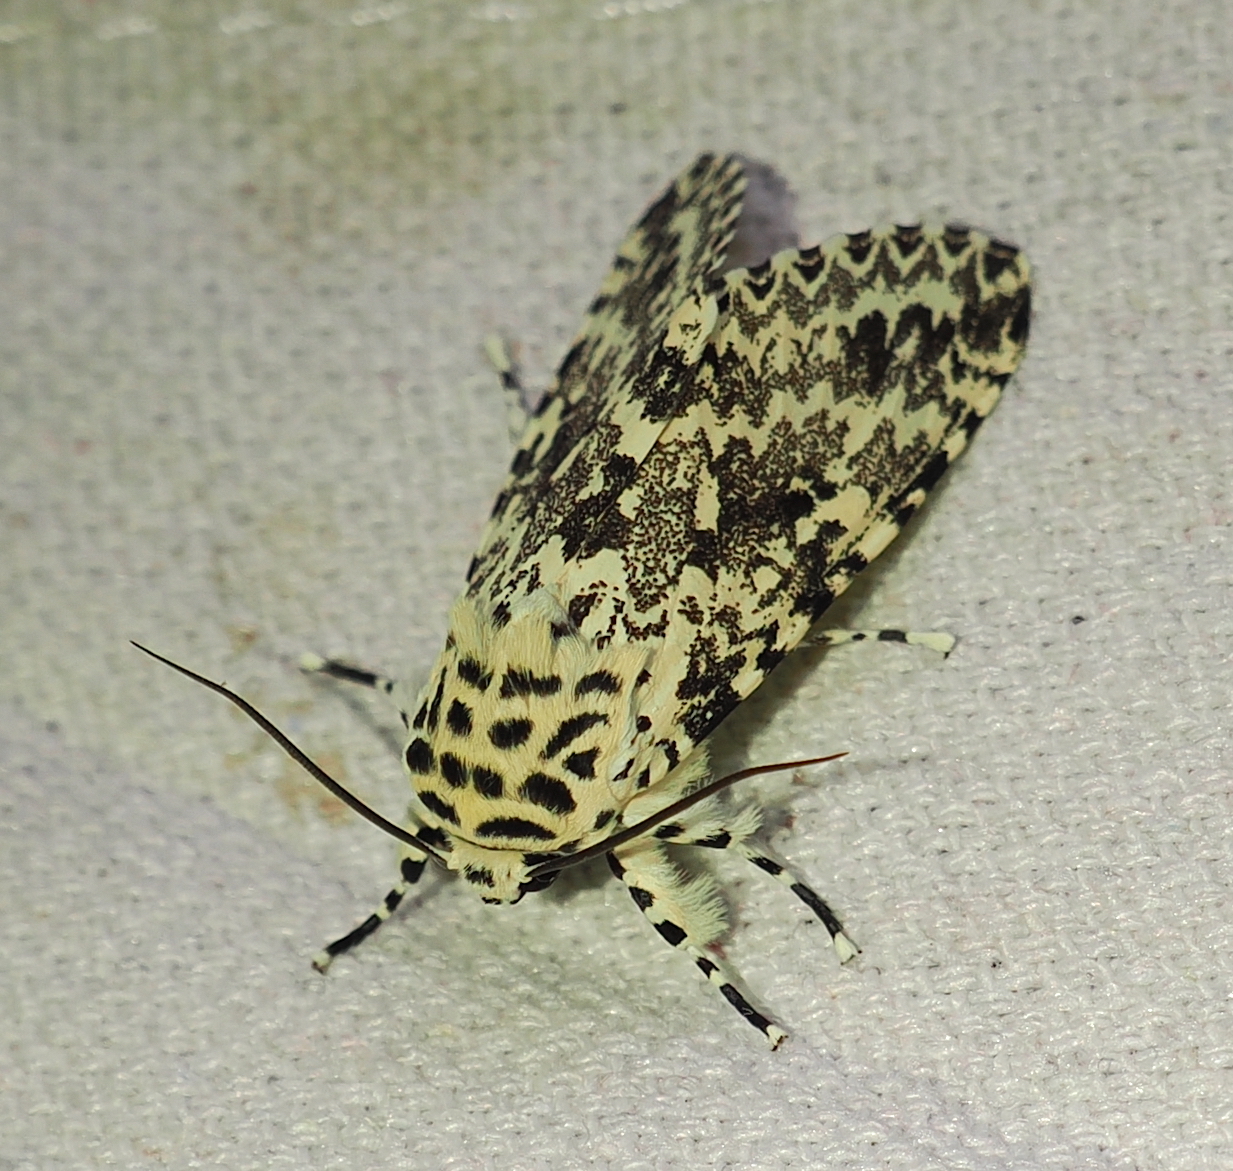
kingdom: Animalia
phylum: Arthropoda
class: Insecta
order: Lepidoptera
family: Noctuidae
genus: Lichnoptera
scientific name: Lichnoptera gulo
